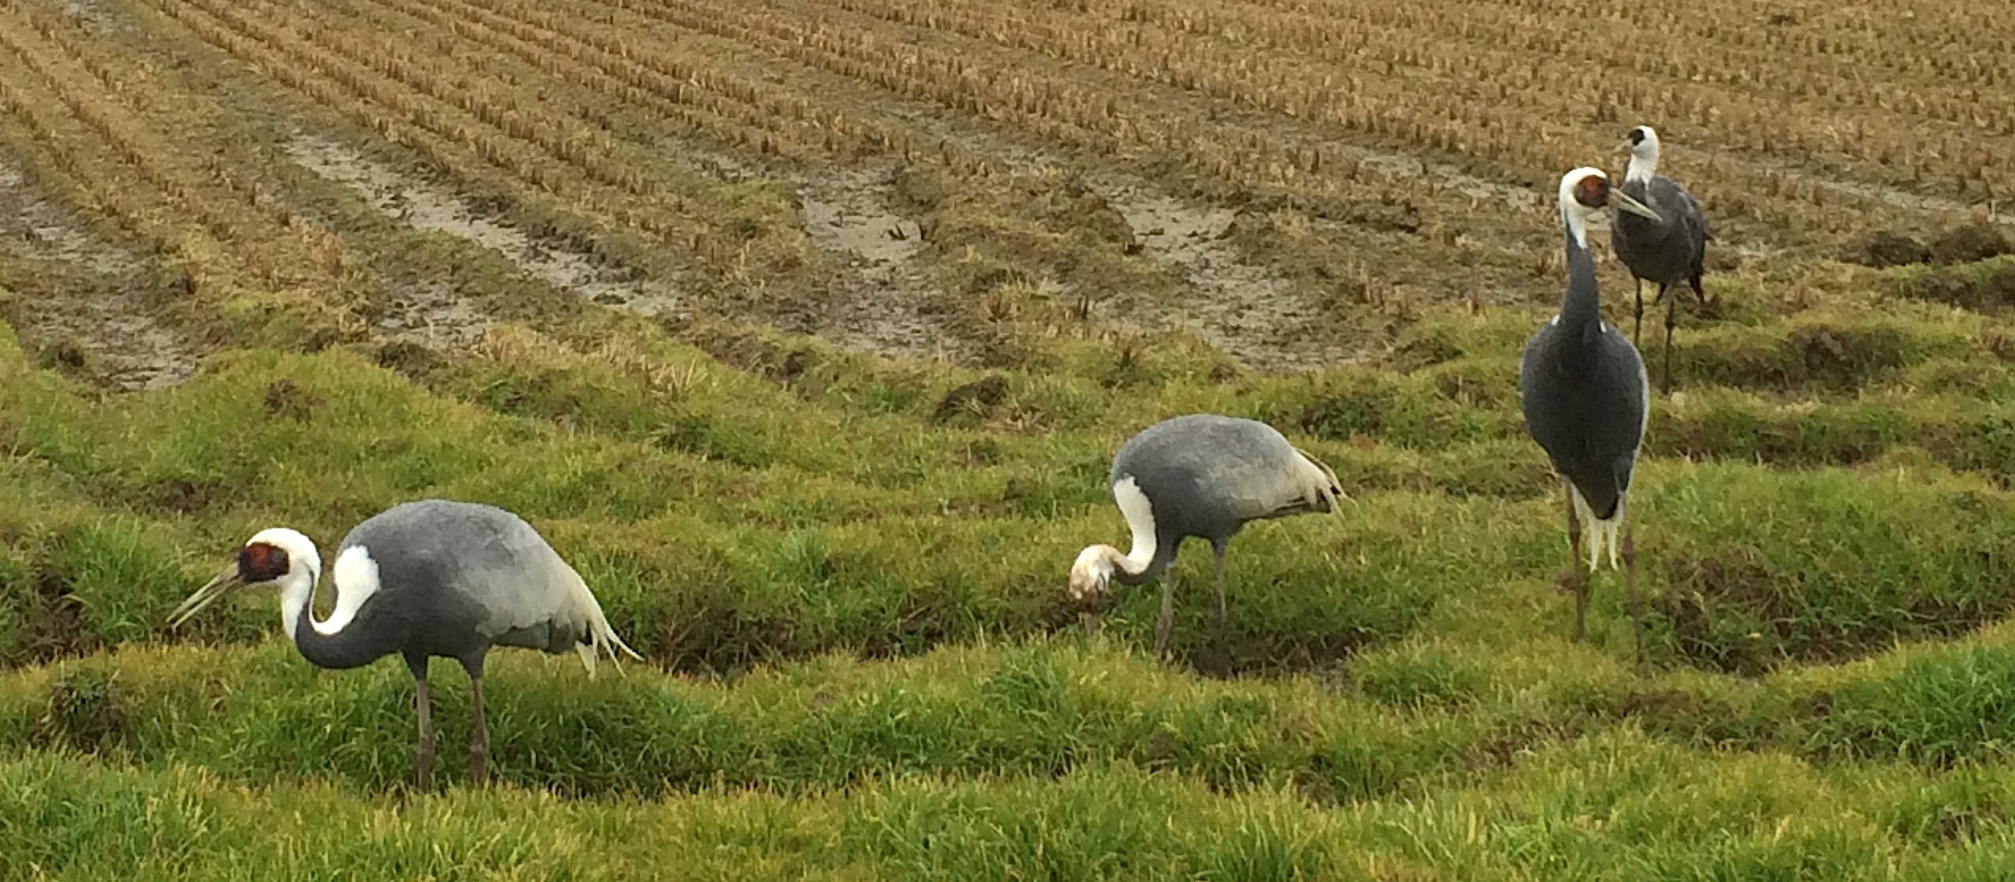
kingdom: Animalia
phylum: Chordata
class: Aves
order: Gruiformes
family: Gruidae
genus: Grus
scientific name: Grus vipio
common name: White-naped crane
